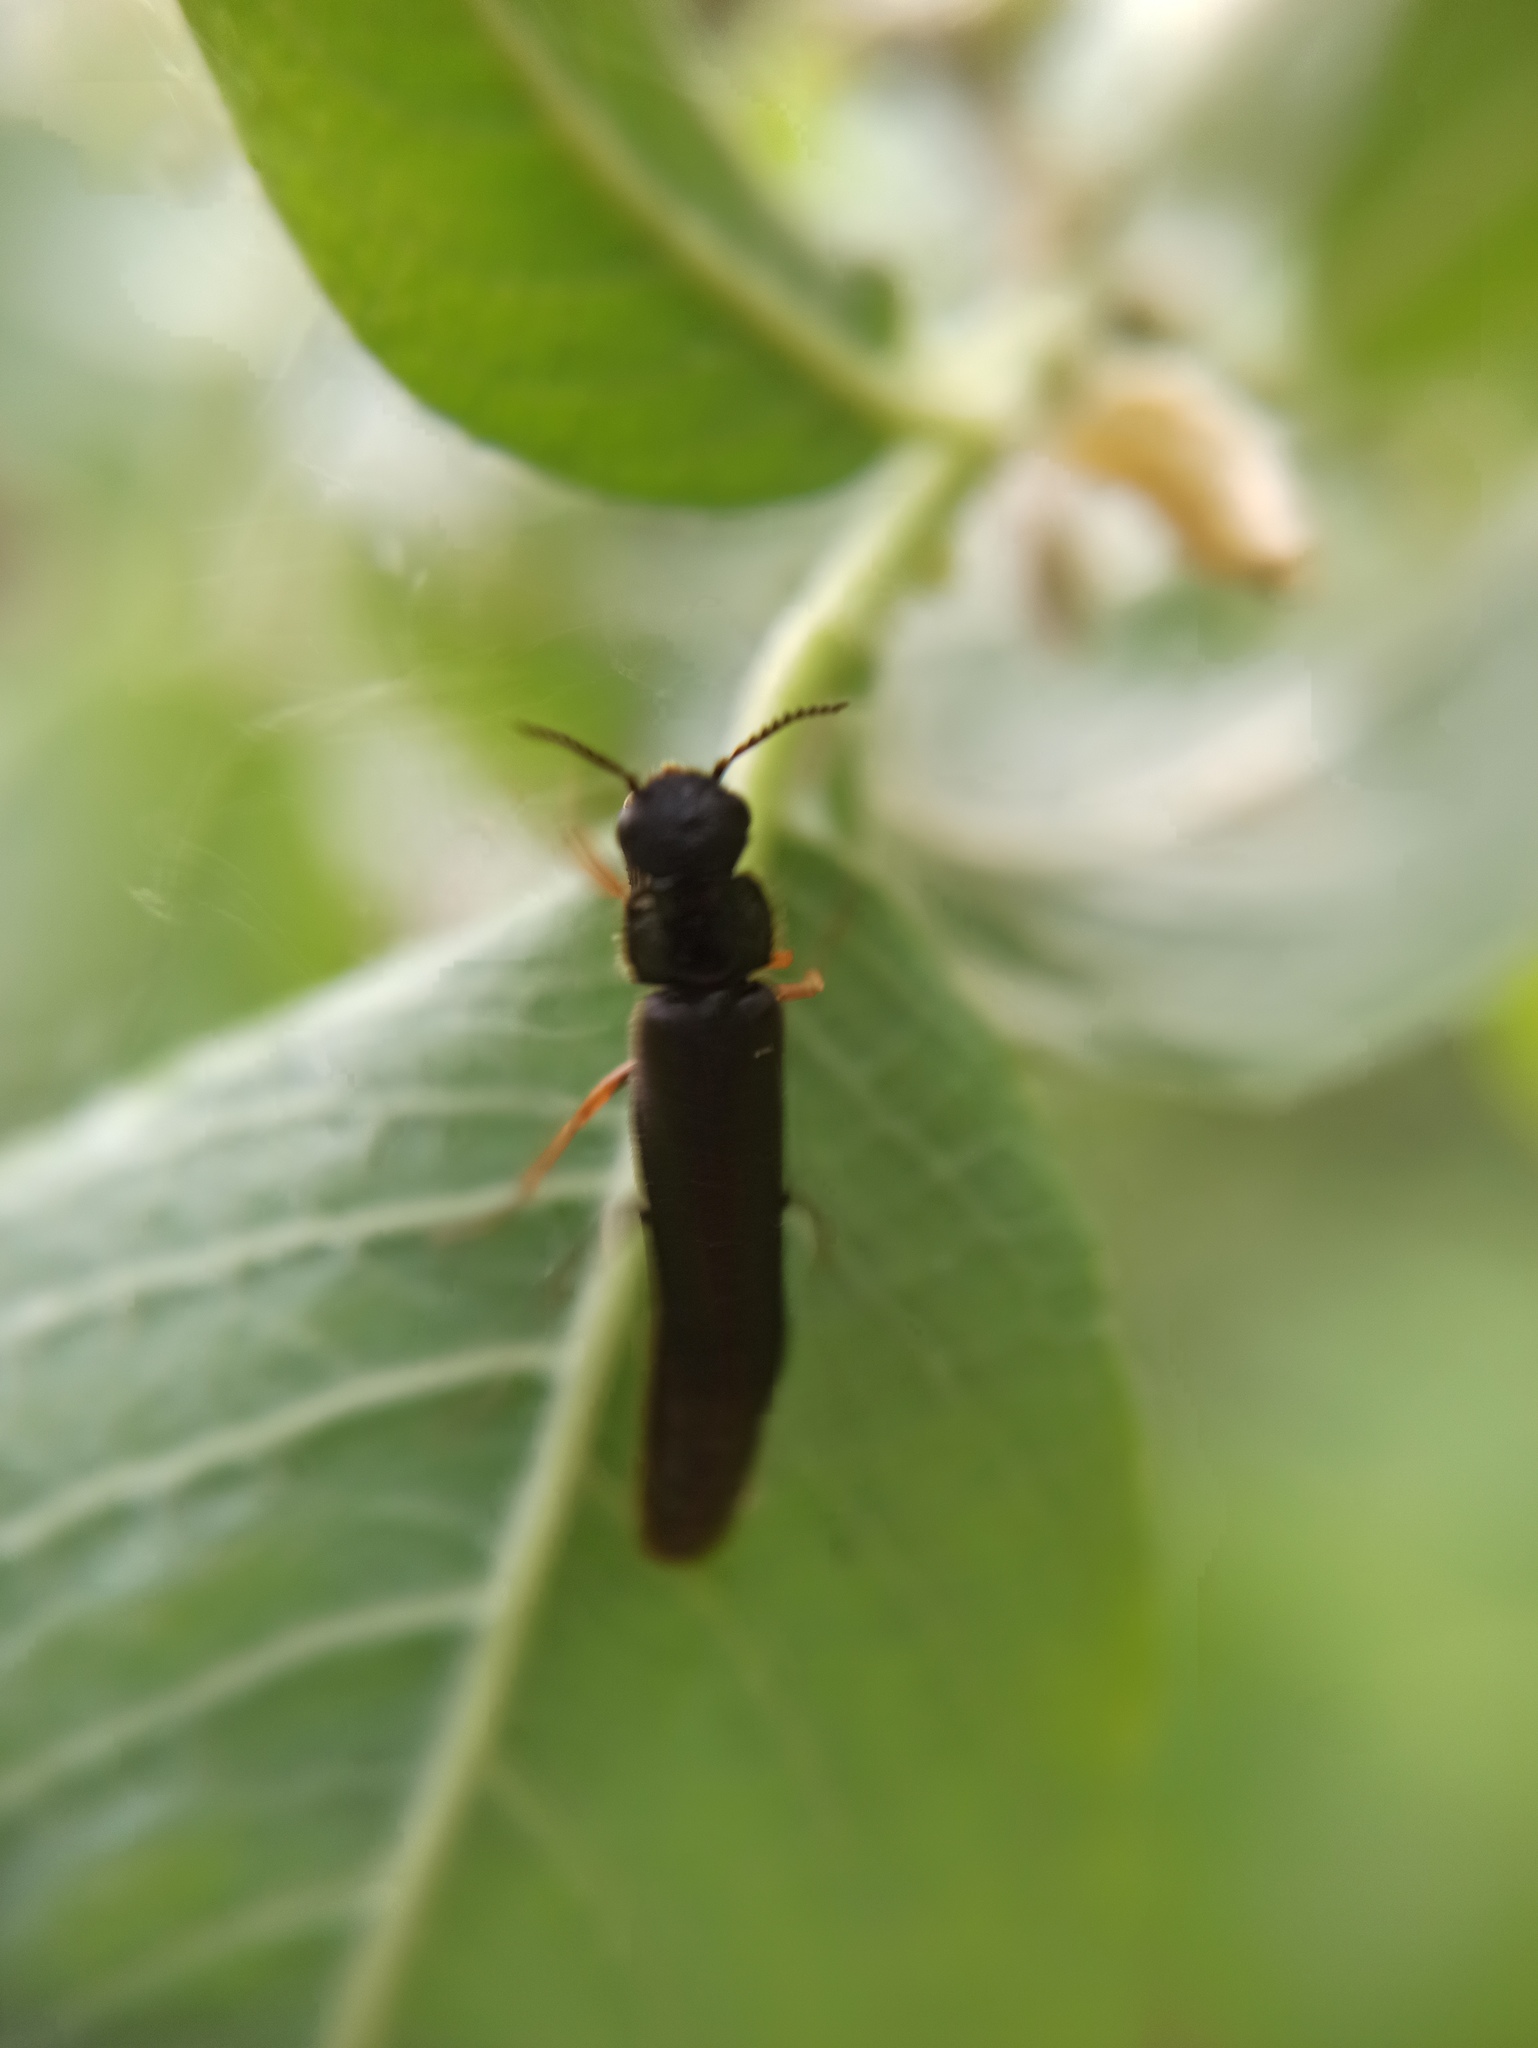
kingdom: Animalia
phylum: Arthropoda
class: Insecta
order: Coleoptera
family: Lymexylidae
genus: Hylecoetus
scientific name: Hylecoetus dermestoides
